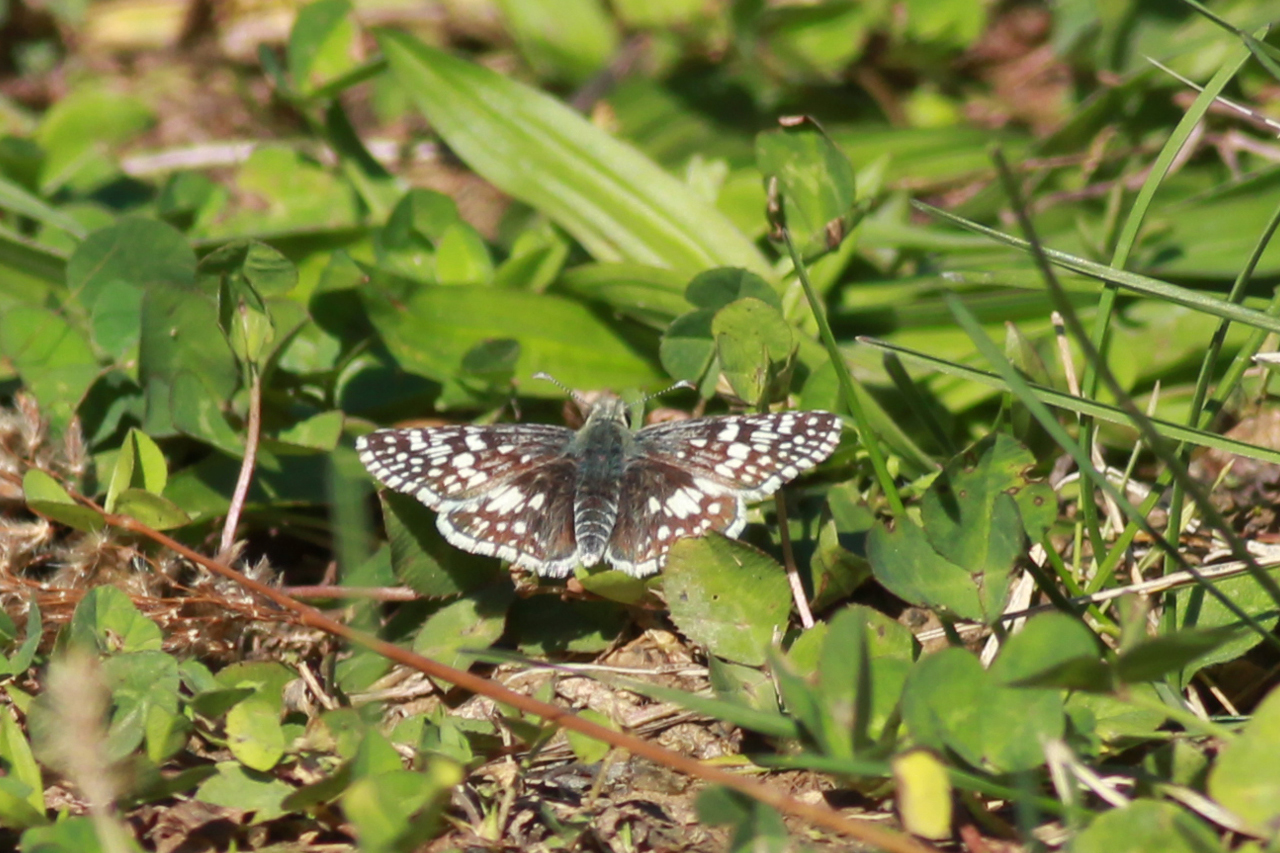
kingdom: Animalia
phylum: Arthropoda
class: Insecta
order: Lepidoptera
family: Hesperiidae
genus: Burnsius
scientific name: Burnsius communis
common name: Common checkered-skipper
